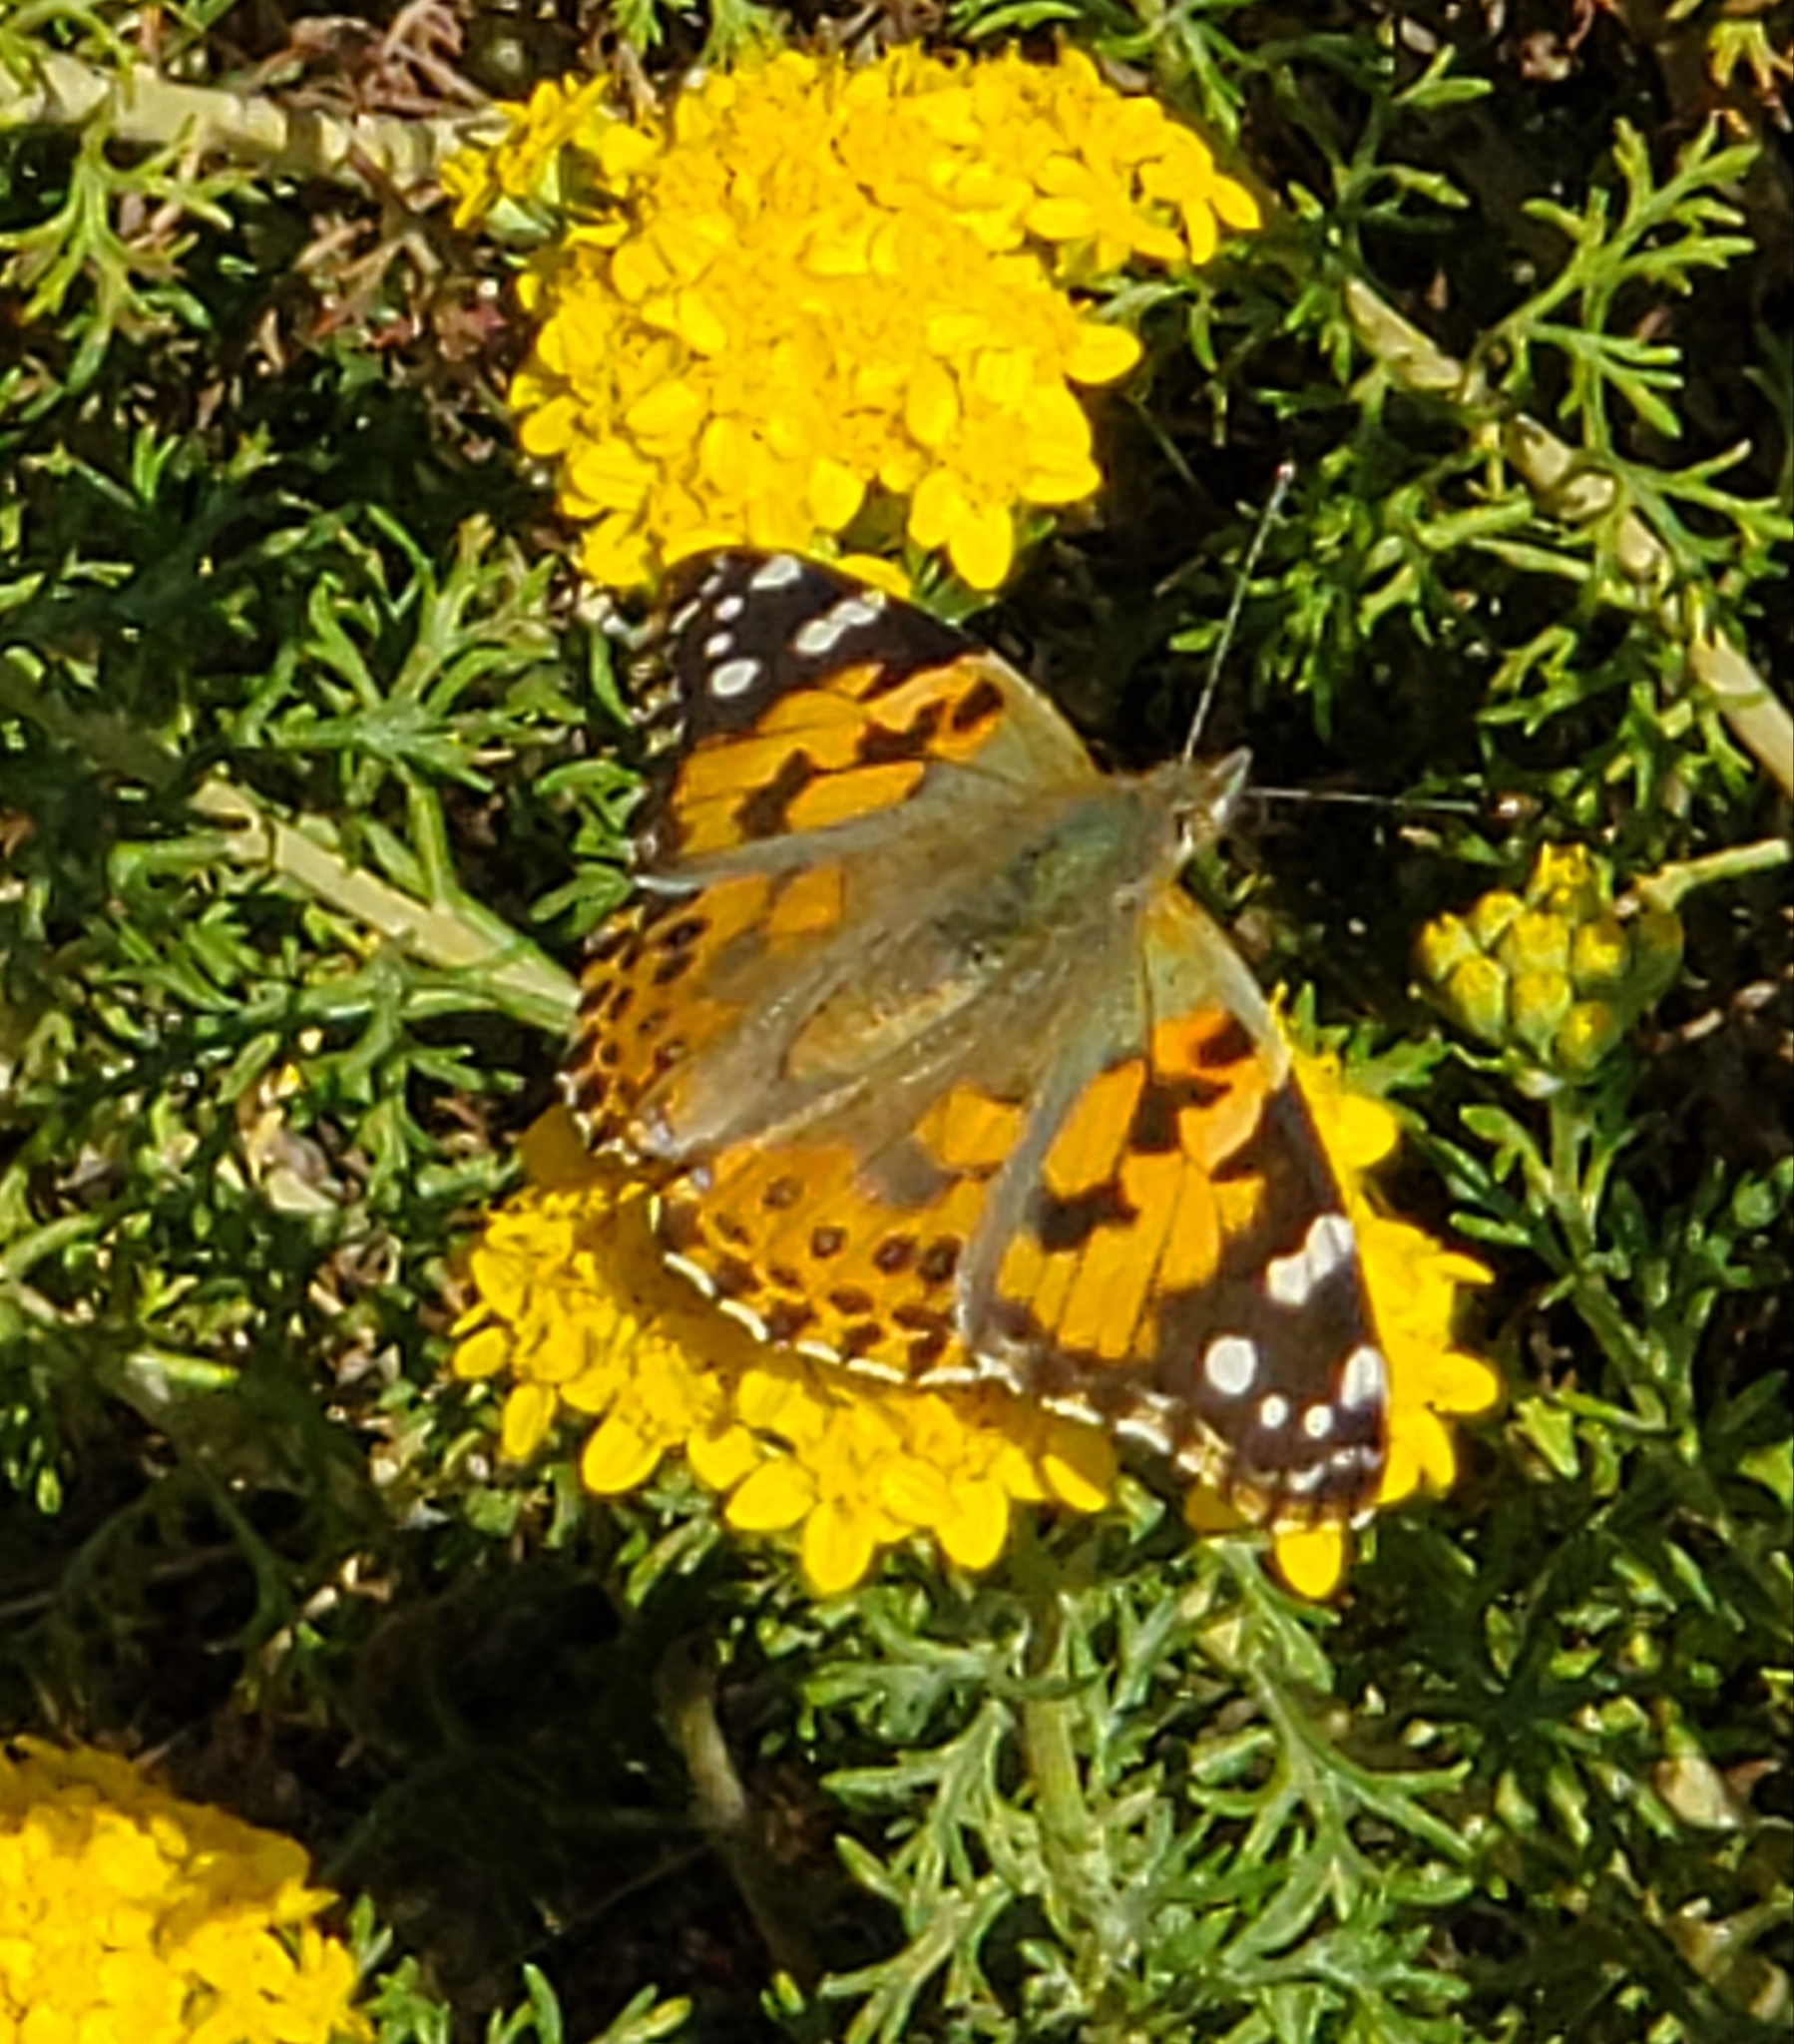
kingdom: Animalia
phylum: Arthropoda
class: Insecta
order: Lepidoptera
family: Nymphalidae
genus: Vanessa
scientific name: Vanessa cardui
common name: Painted lady
